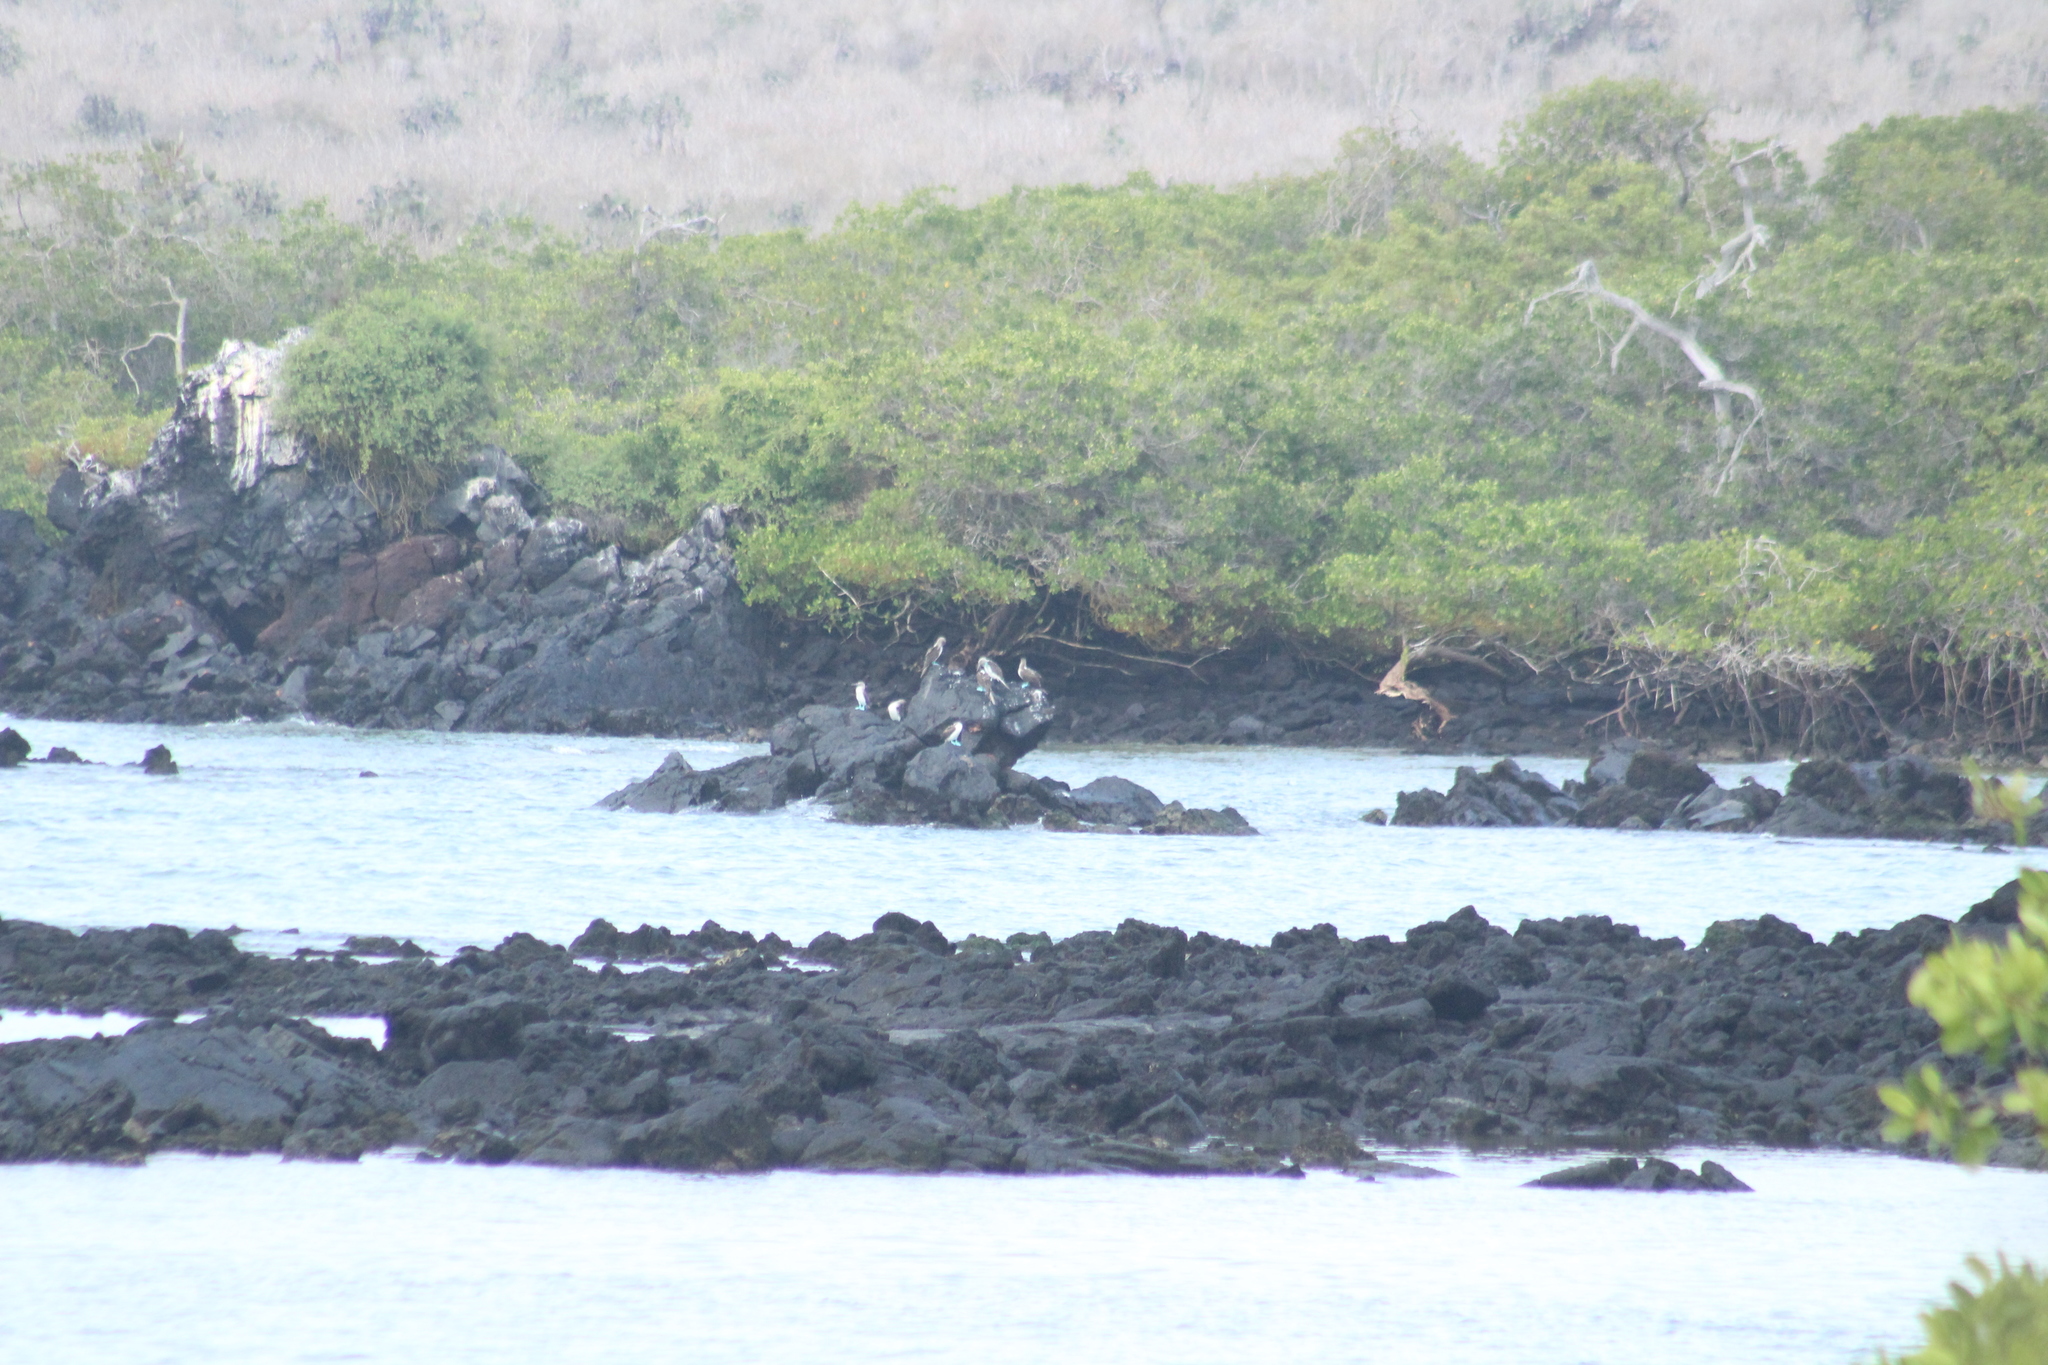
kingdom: Animalia
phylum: Chordata
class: Aves
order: Suliformes
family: Sulidae
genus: Sula
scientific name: Sula nebouxii
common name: Blue-footed booby
